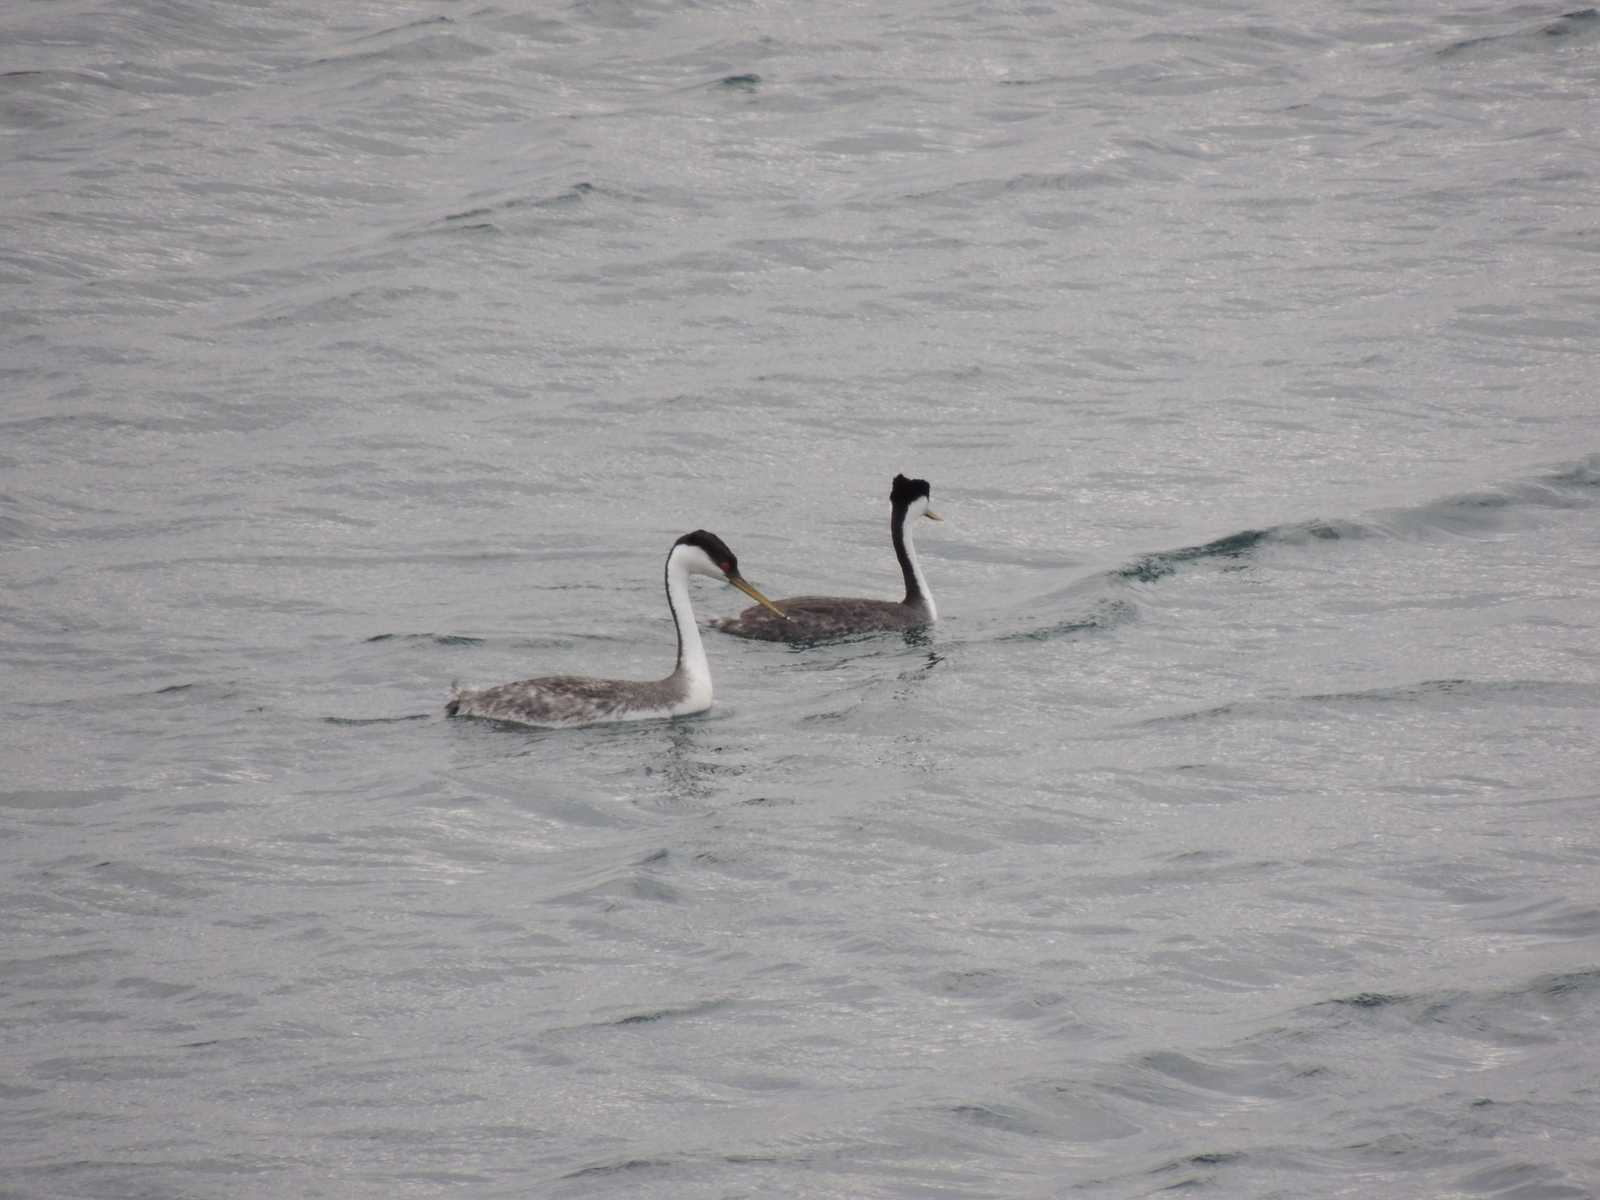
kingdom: Animalia
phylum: Chordata
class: Aves
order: Podicipediformes
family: Podicipedidae
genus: Aechmophorus
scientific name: Aechmophorus occidentalis
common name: Western grebe
